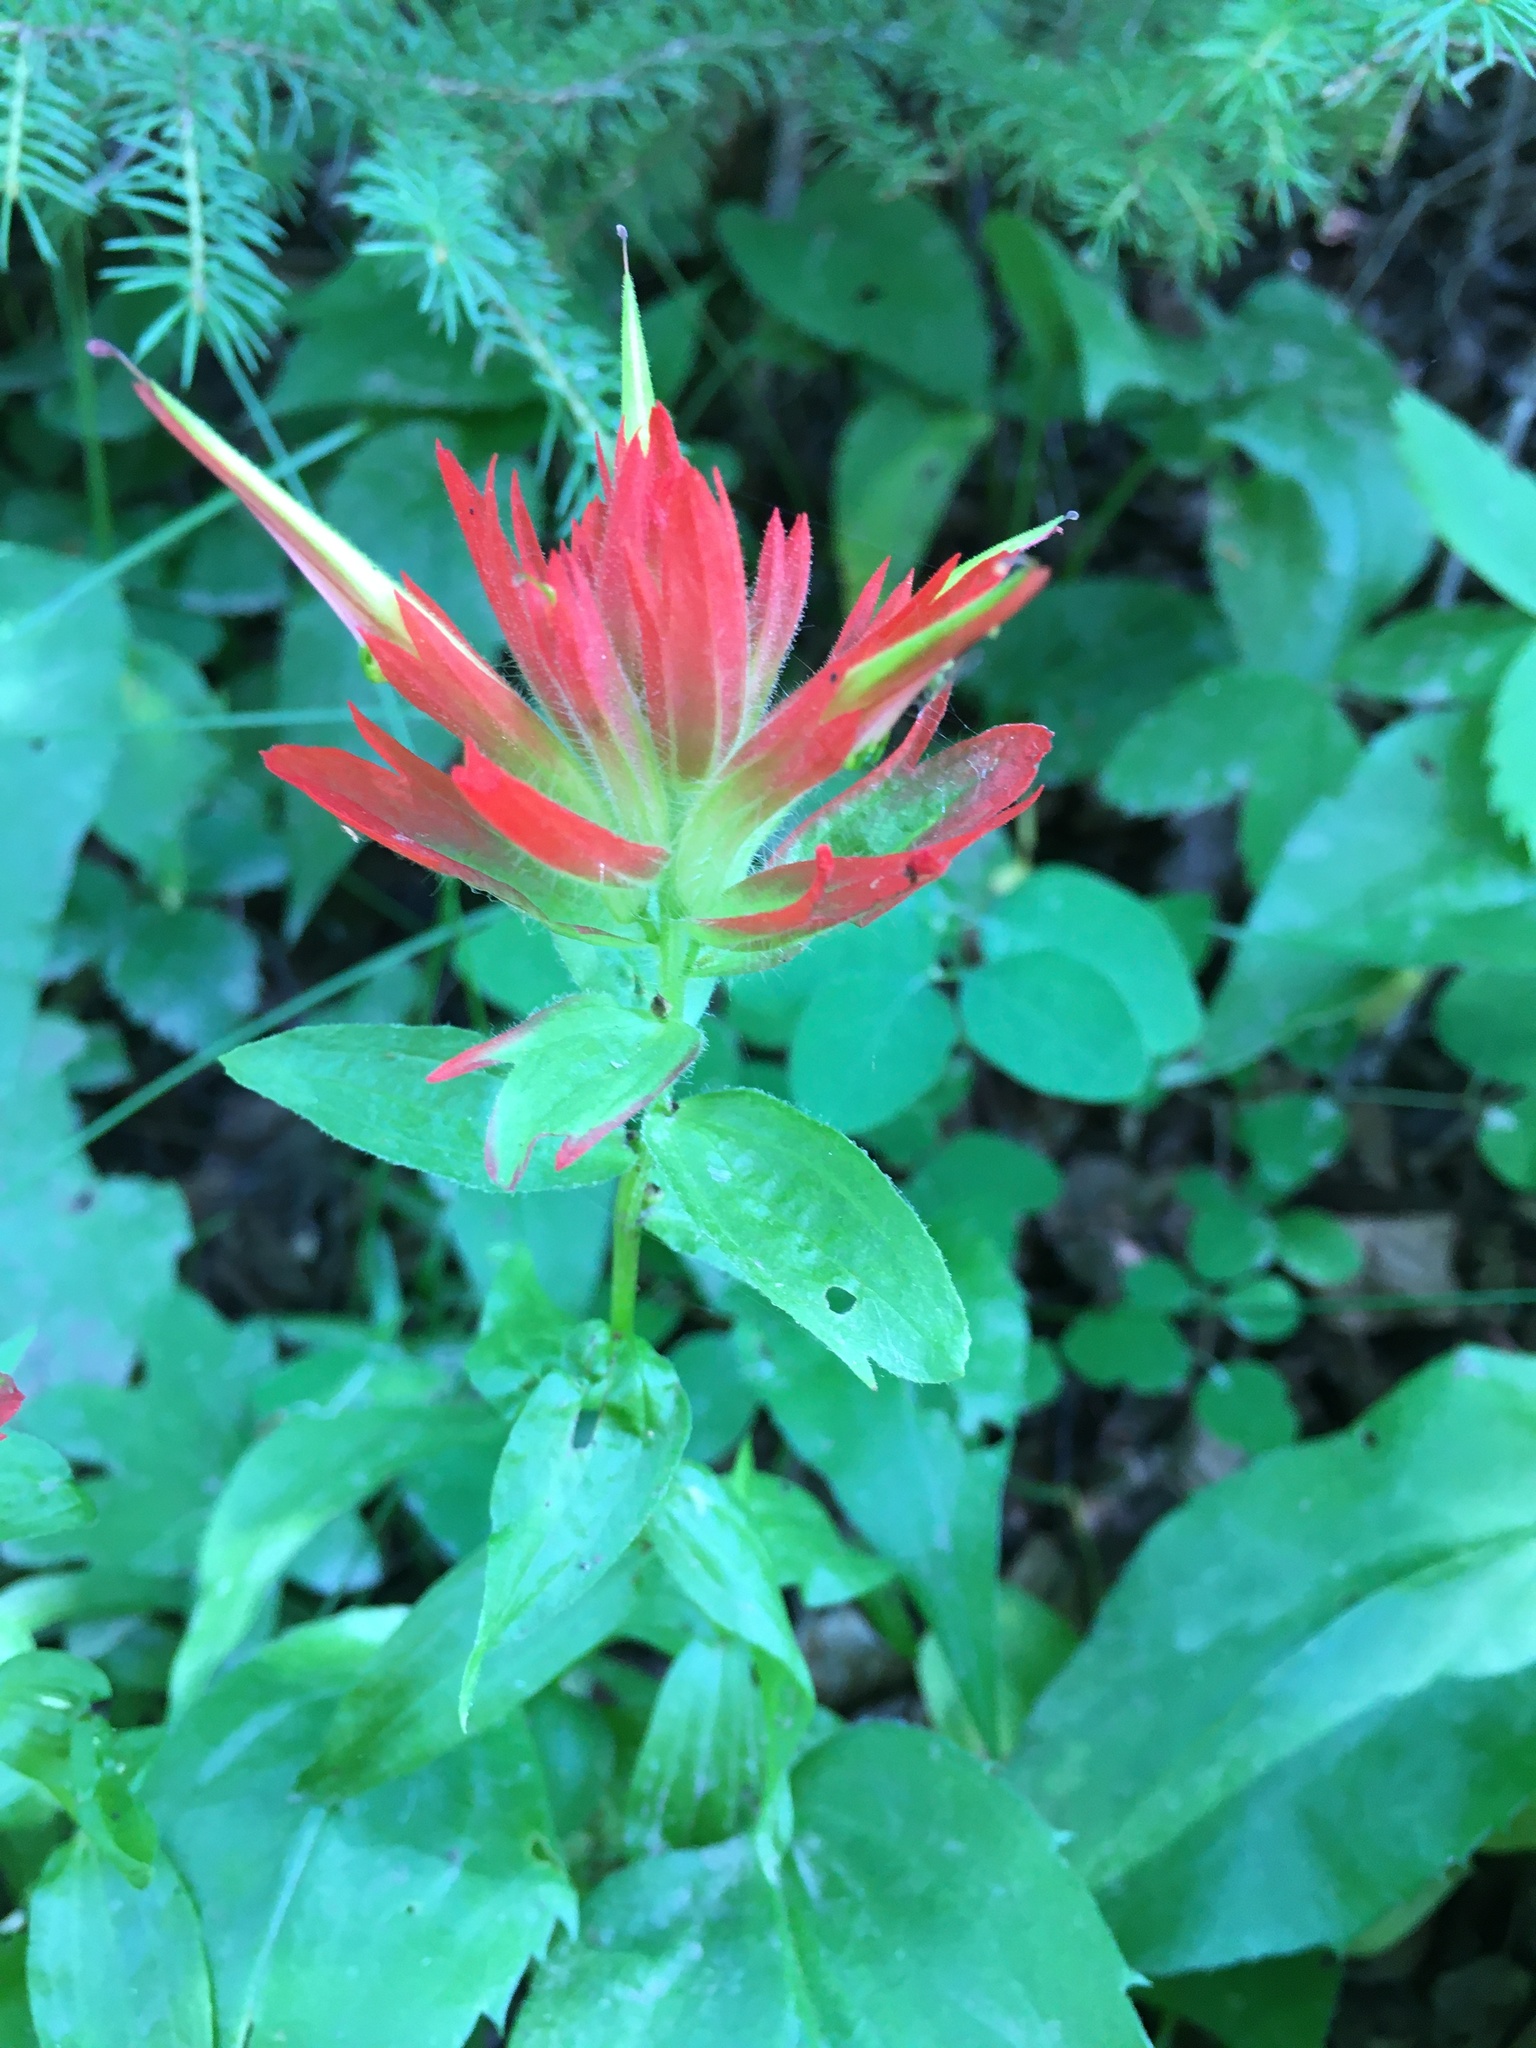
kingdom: Plantae
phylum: Tracheophyta
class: Magnoliopsida
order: Lamiales
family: Orobanchaceae
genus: Castilleja
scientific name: Castilleja miniata
